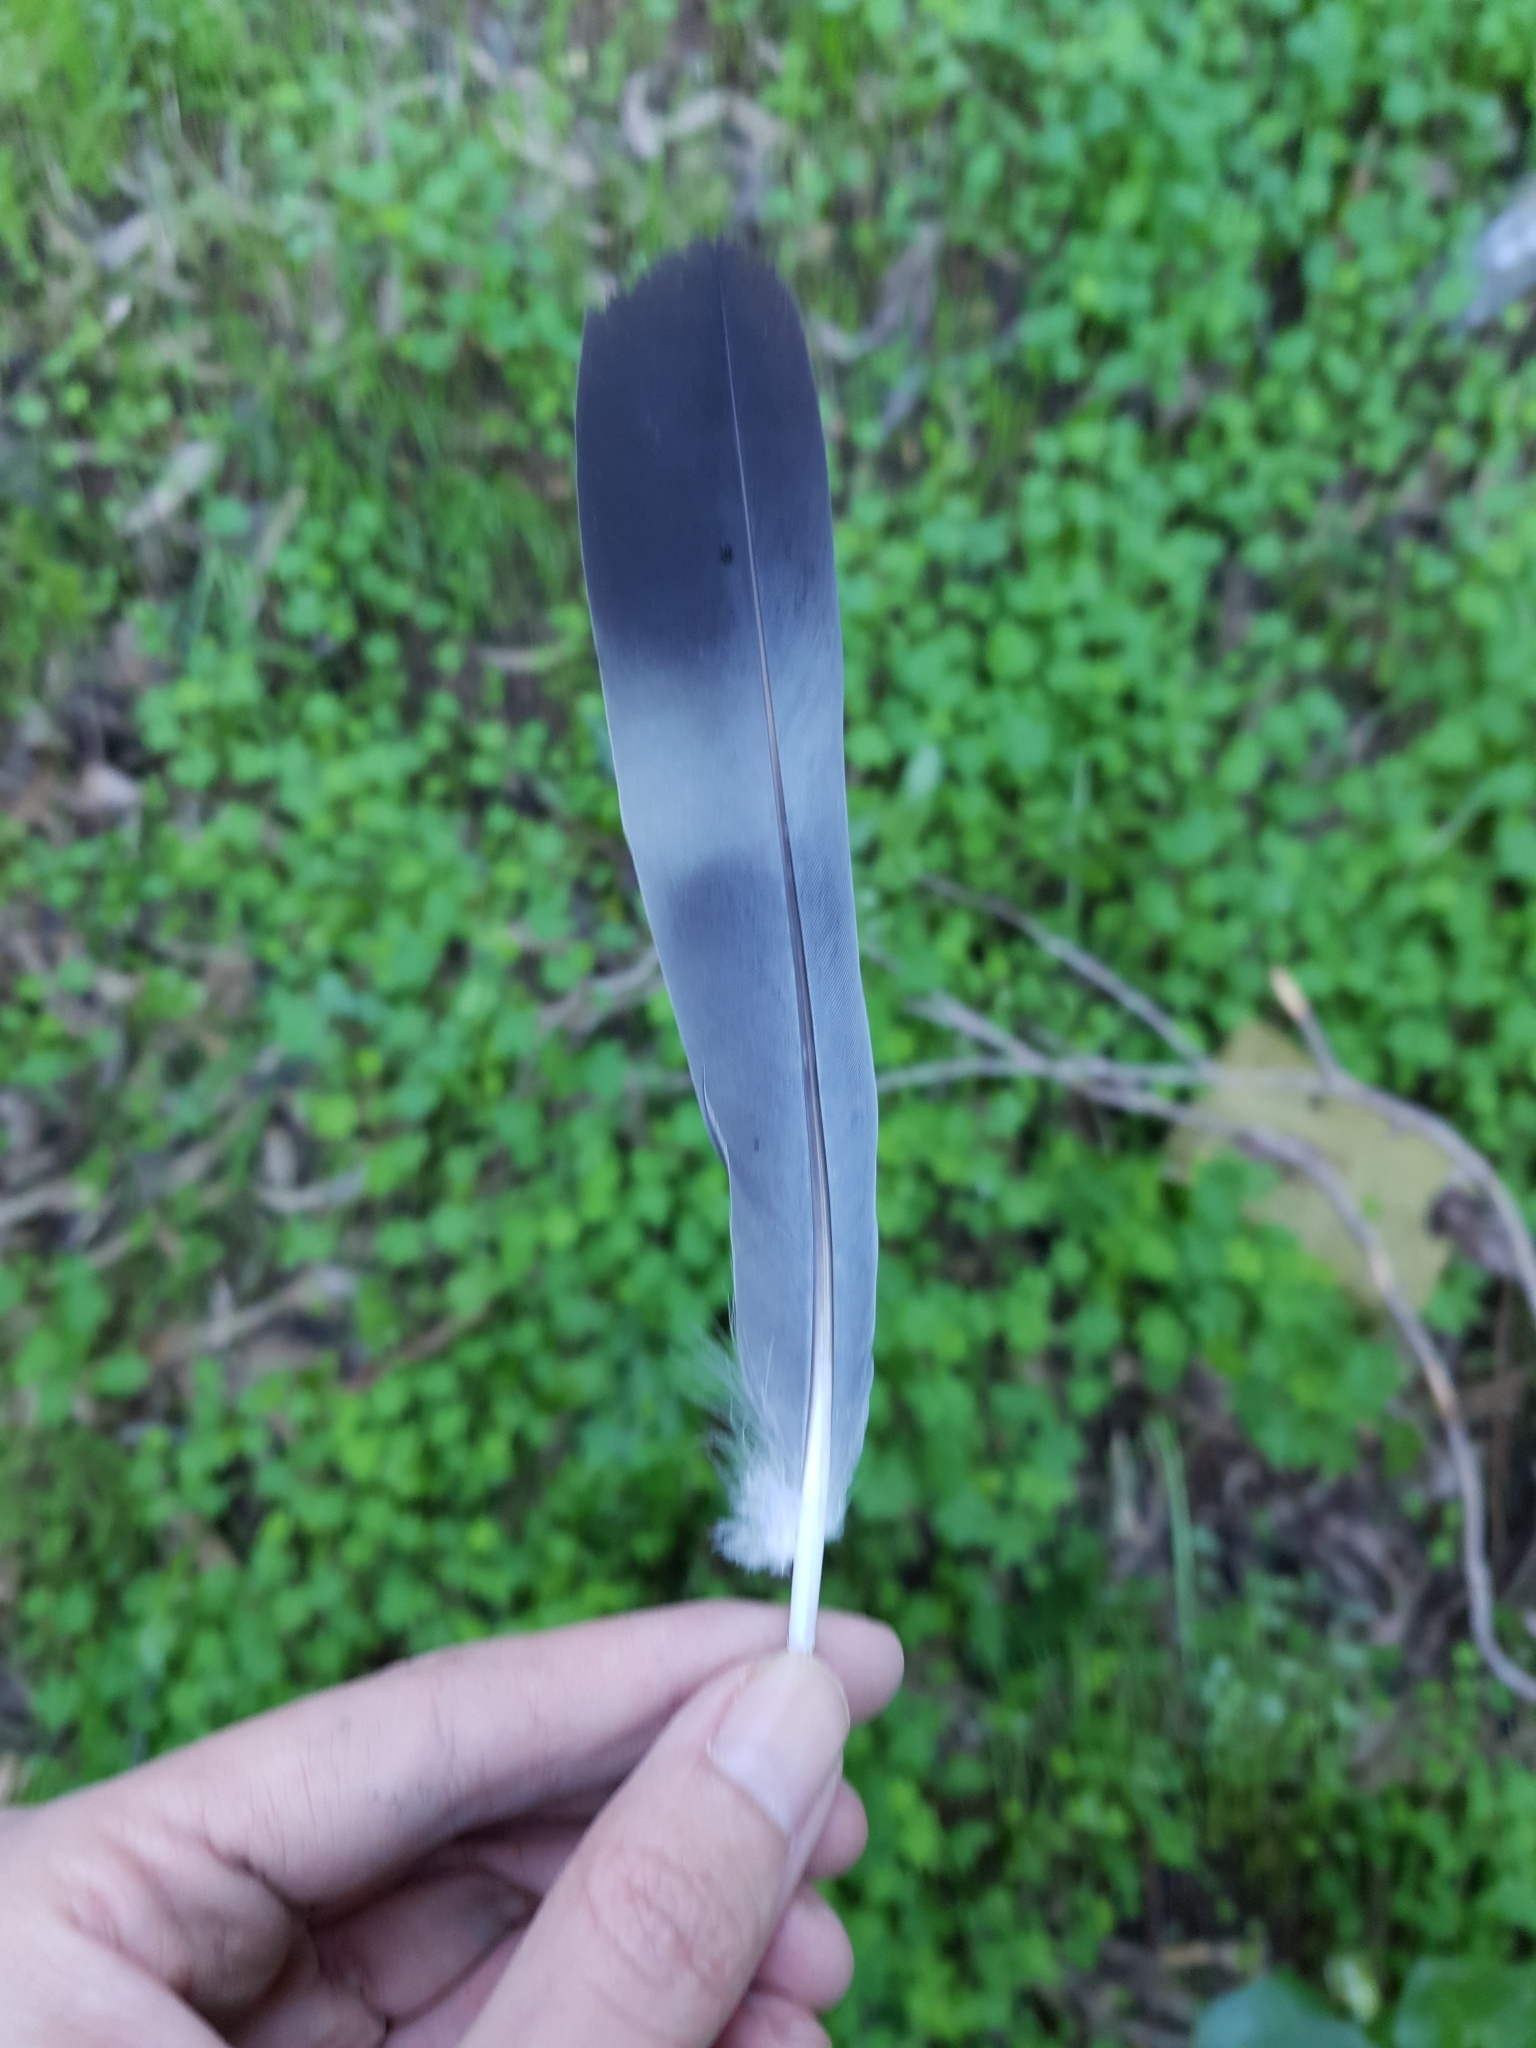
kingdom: Animalia
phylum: Chordata
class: Aves
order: Columbiformes
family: Columbidae
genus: Columba
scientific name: Columba palumbus
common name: Common wood pigeon
